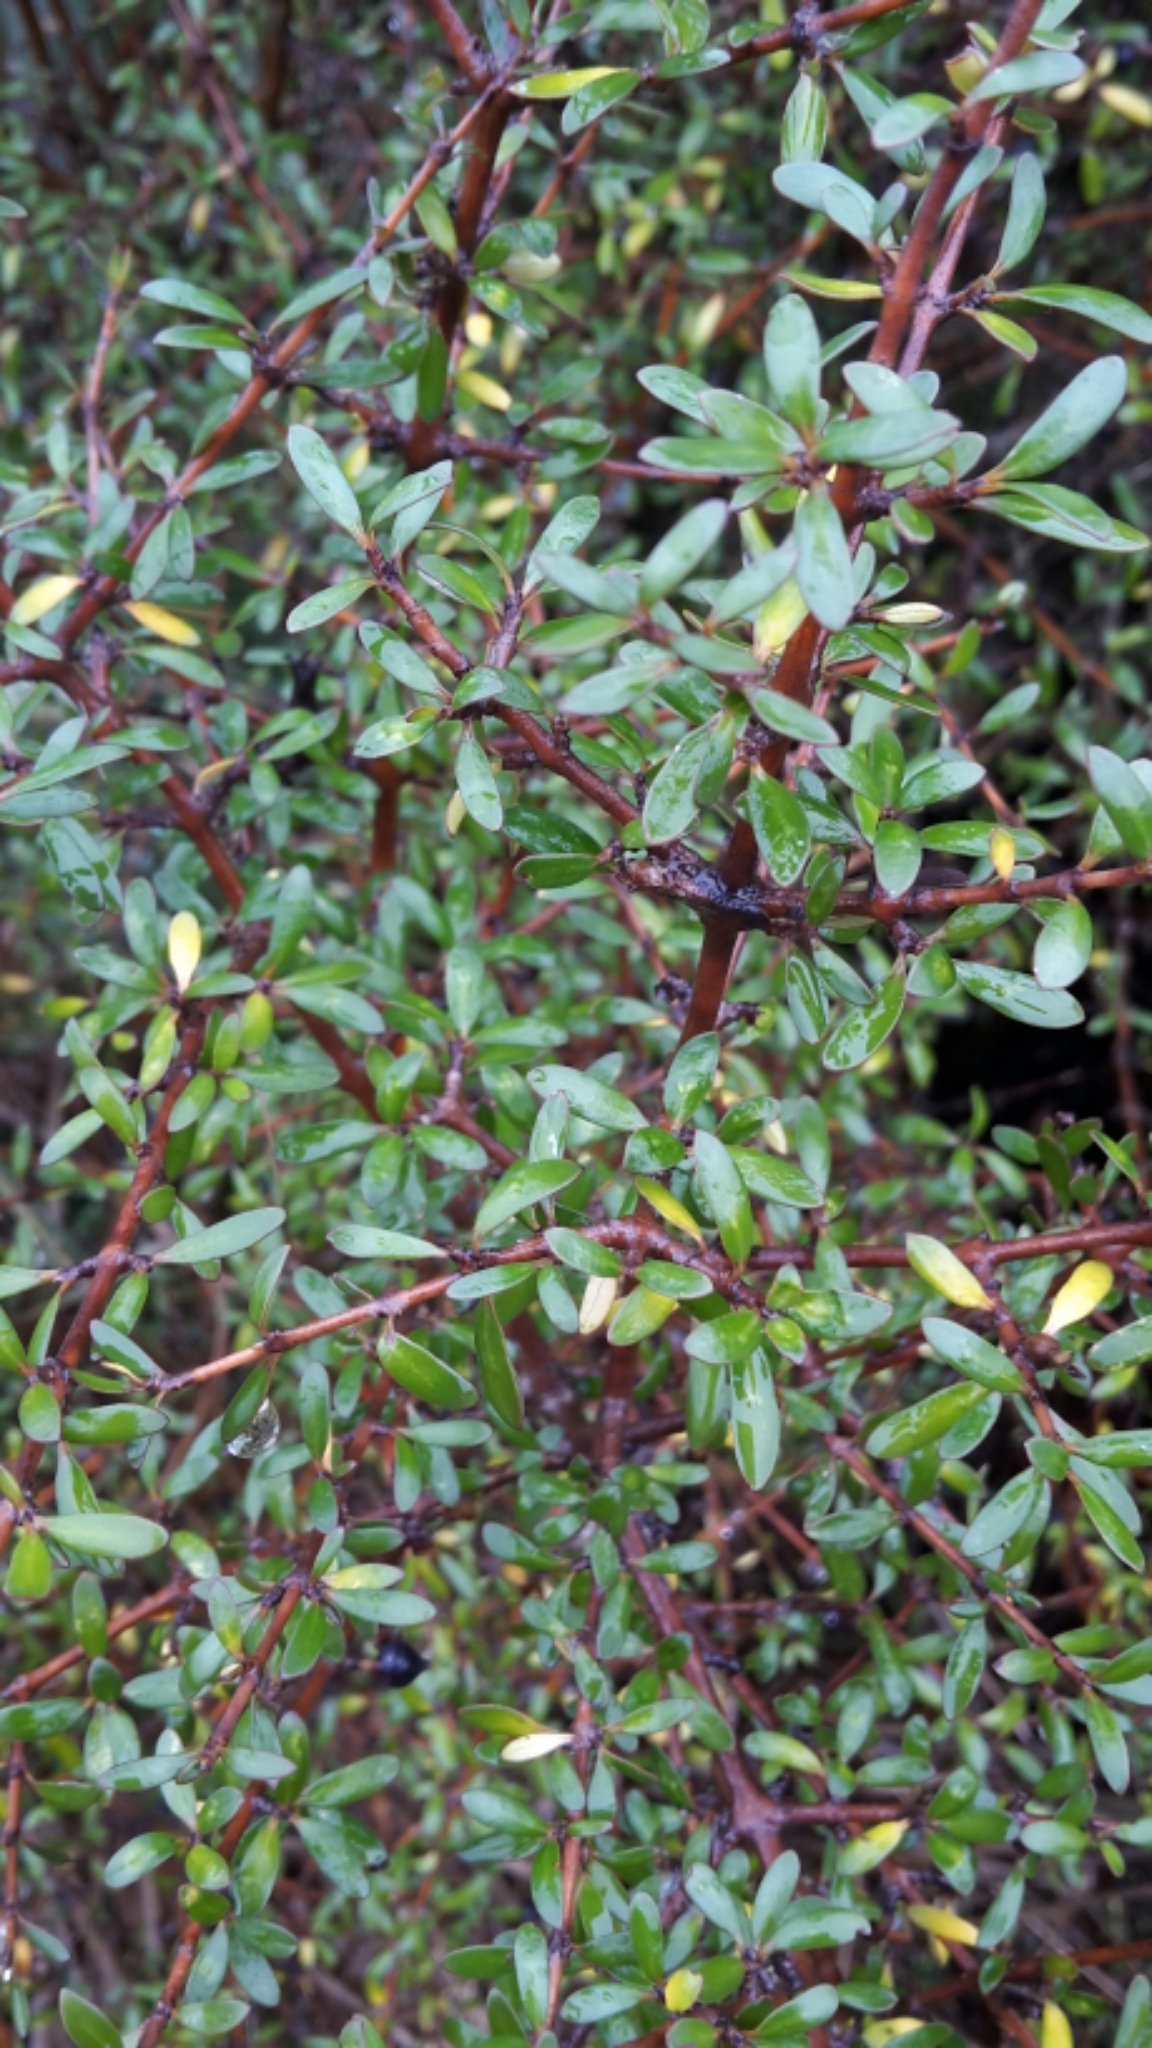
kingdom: Plantae
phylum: Tracheophyta
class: Magnoliopsida
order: Gentianales
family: Rubiaceae
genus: Coprosma
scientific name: Coprosma propinqua
